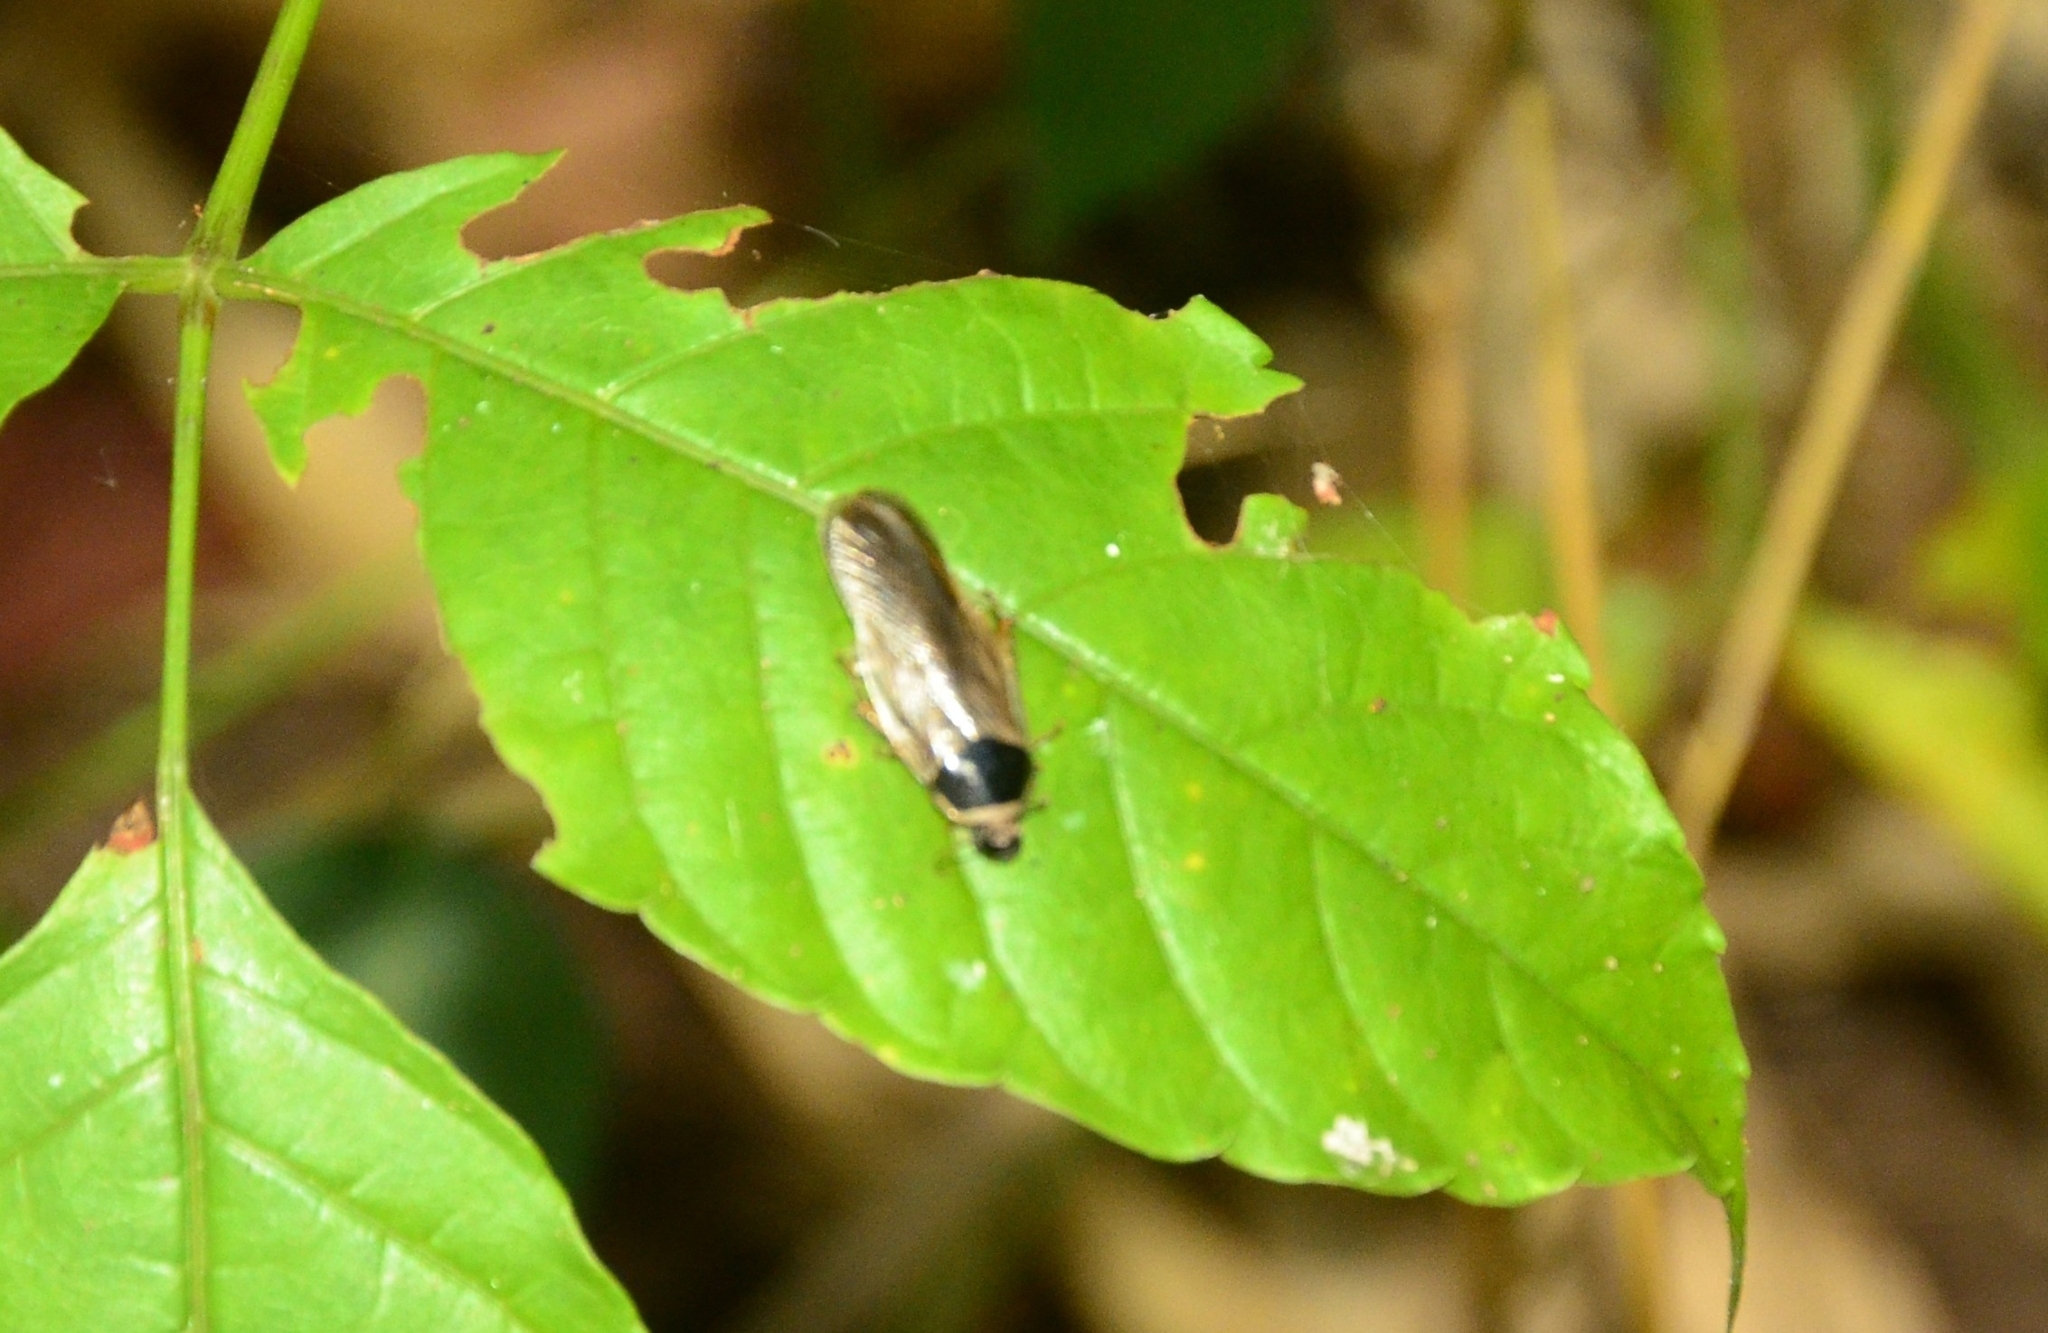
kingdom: Animalia
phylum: Arthropoda
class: Insecta
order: Blattodea
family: Blaberidae
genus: Pycnoscelus
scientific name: Pycnoscelus indicus
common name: Burrowing cockroach
